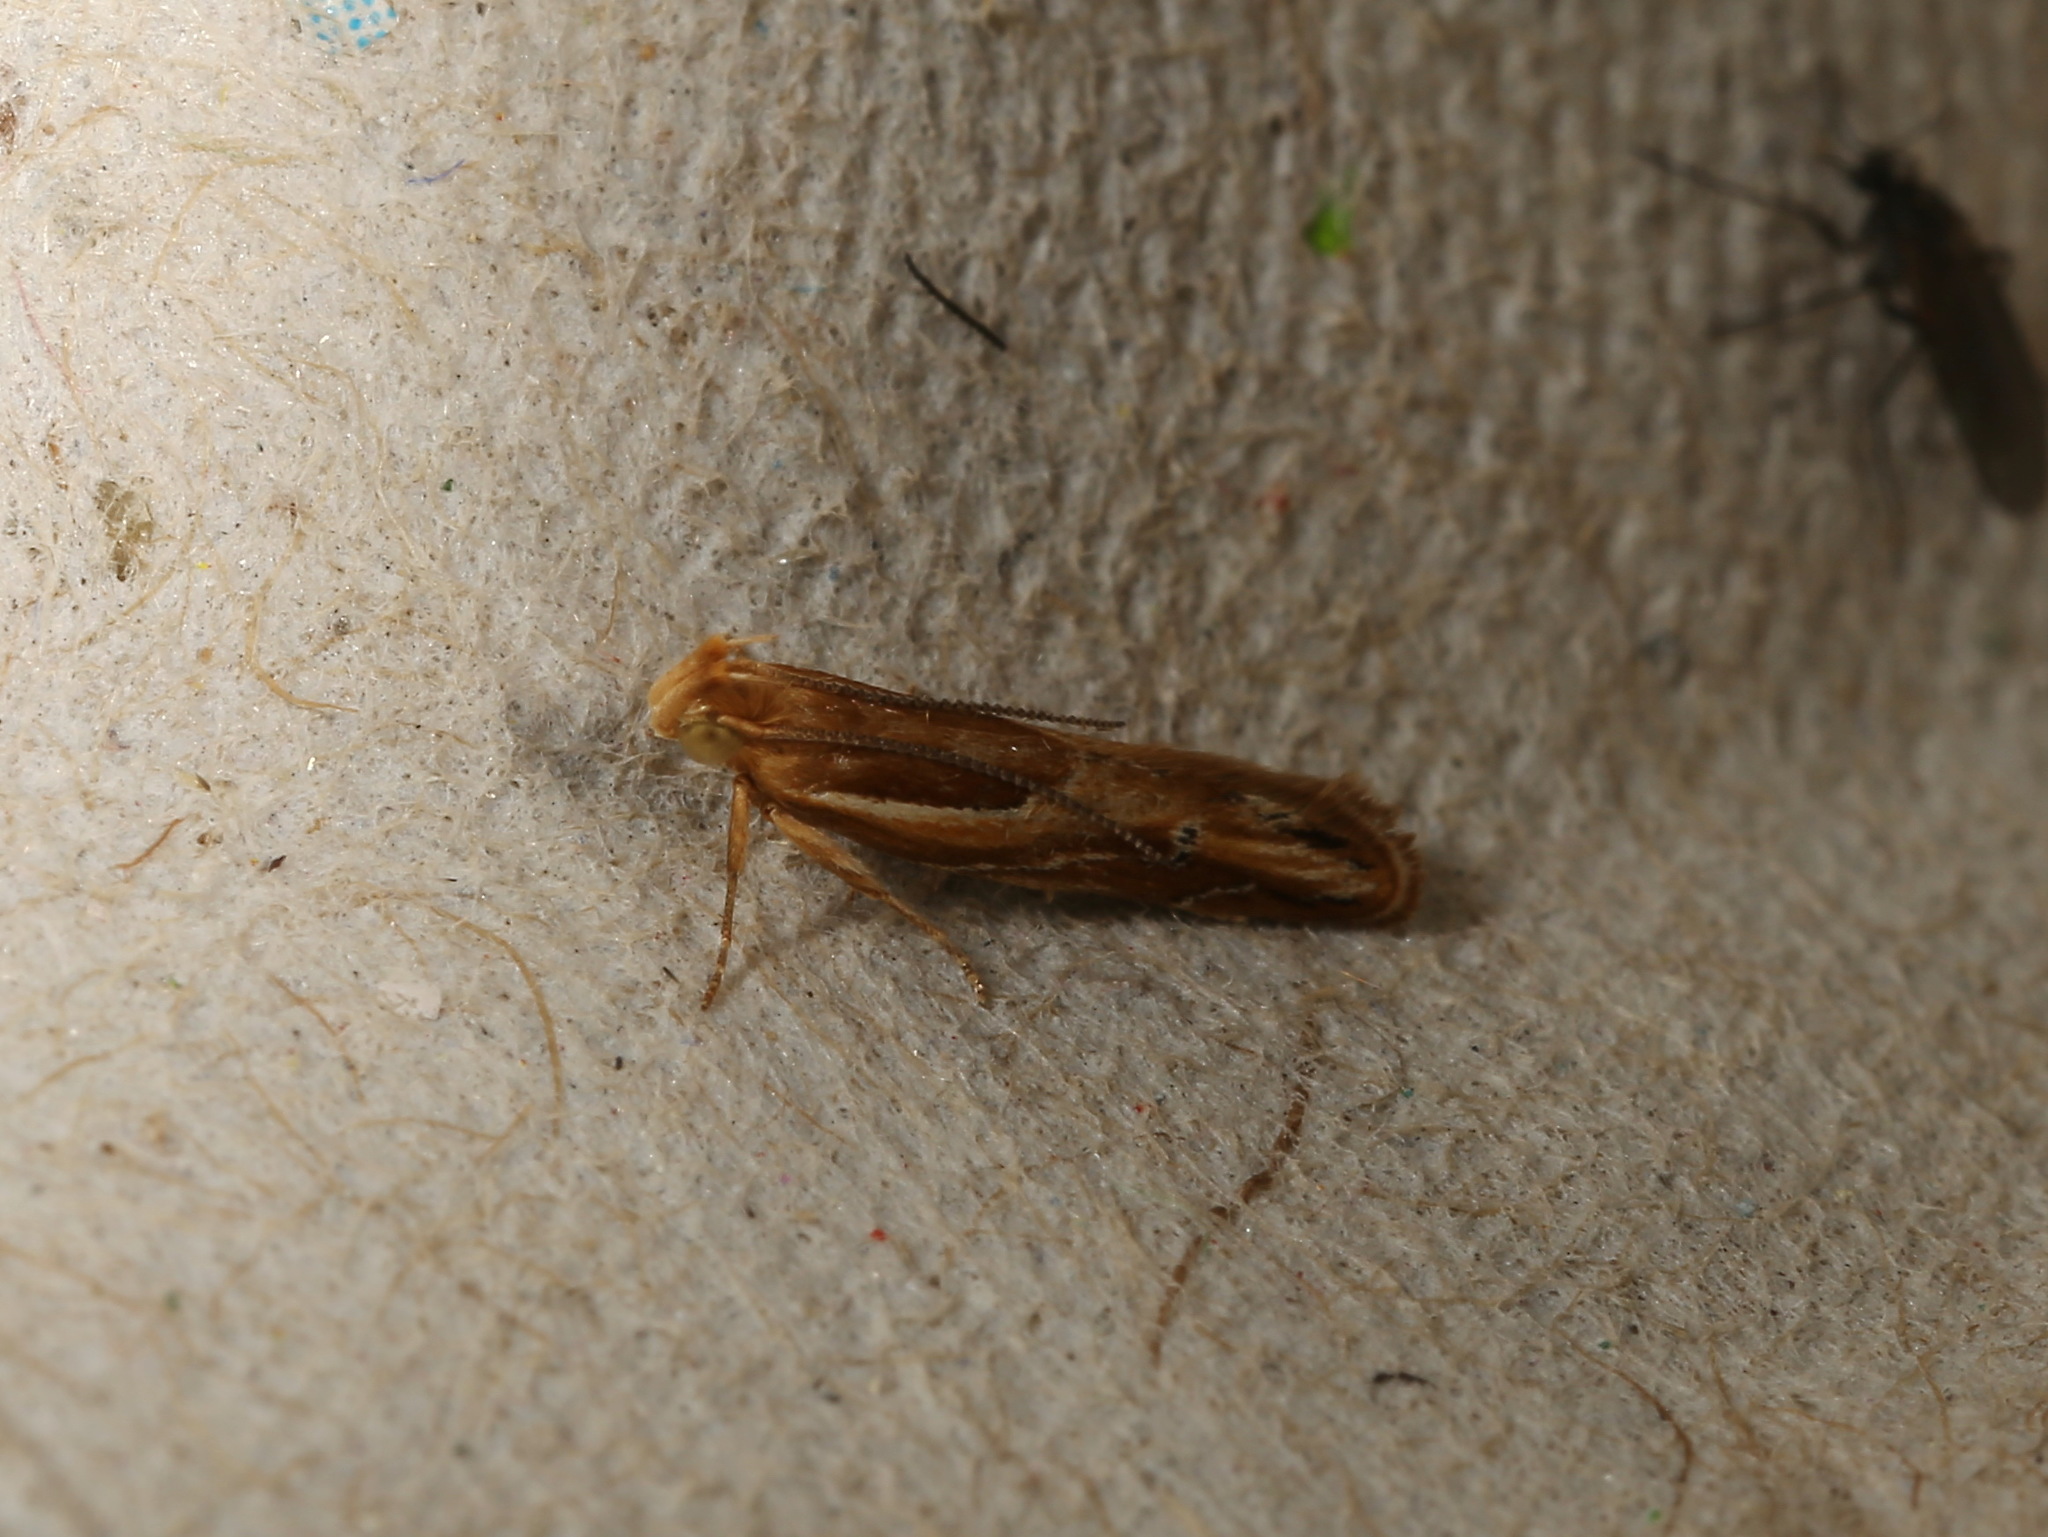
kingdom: Animalia
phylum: Arthropoda
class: Insecta
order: Lepidoptera
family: Depressariidae
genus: Eutorna
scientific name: Eutorna tricasis
